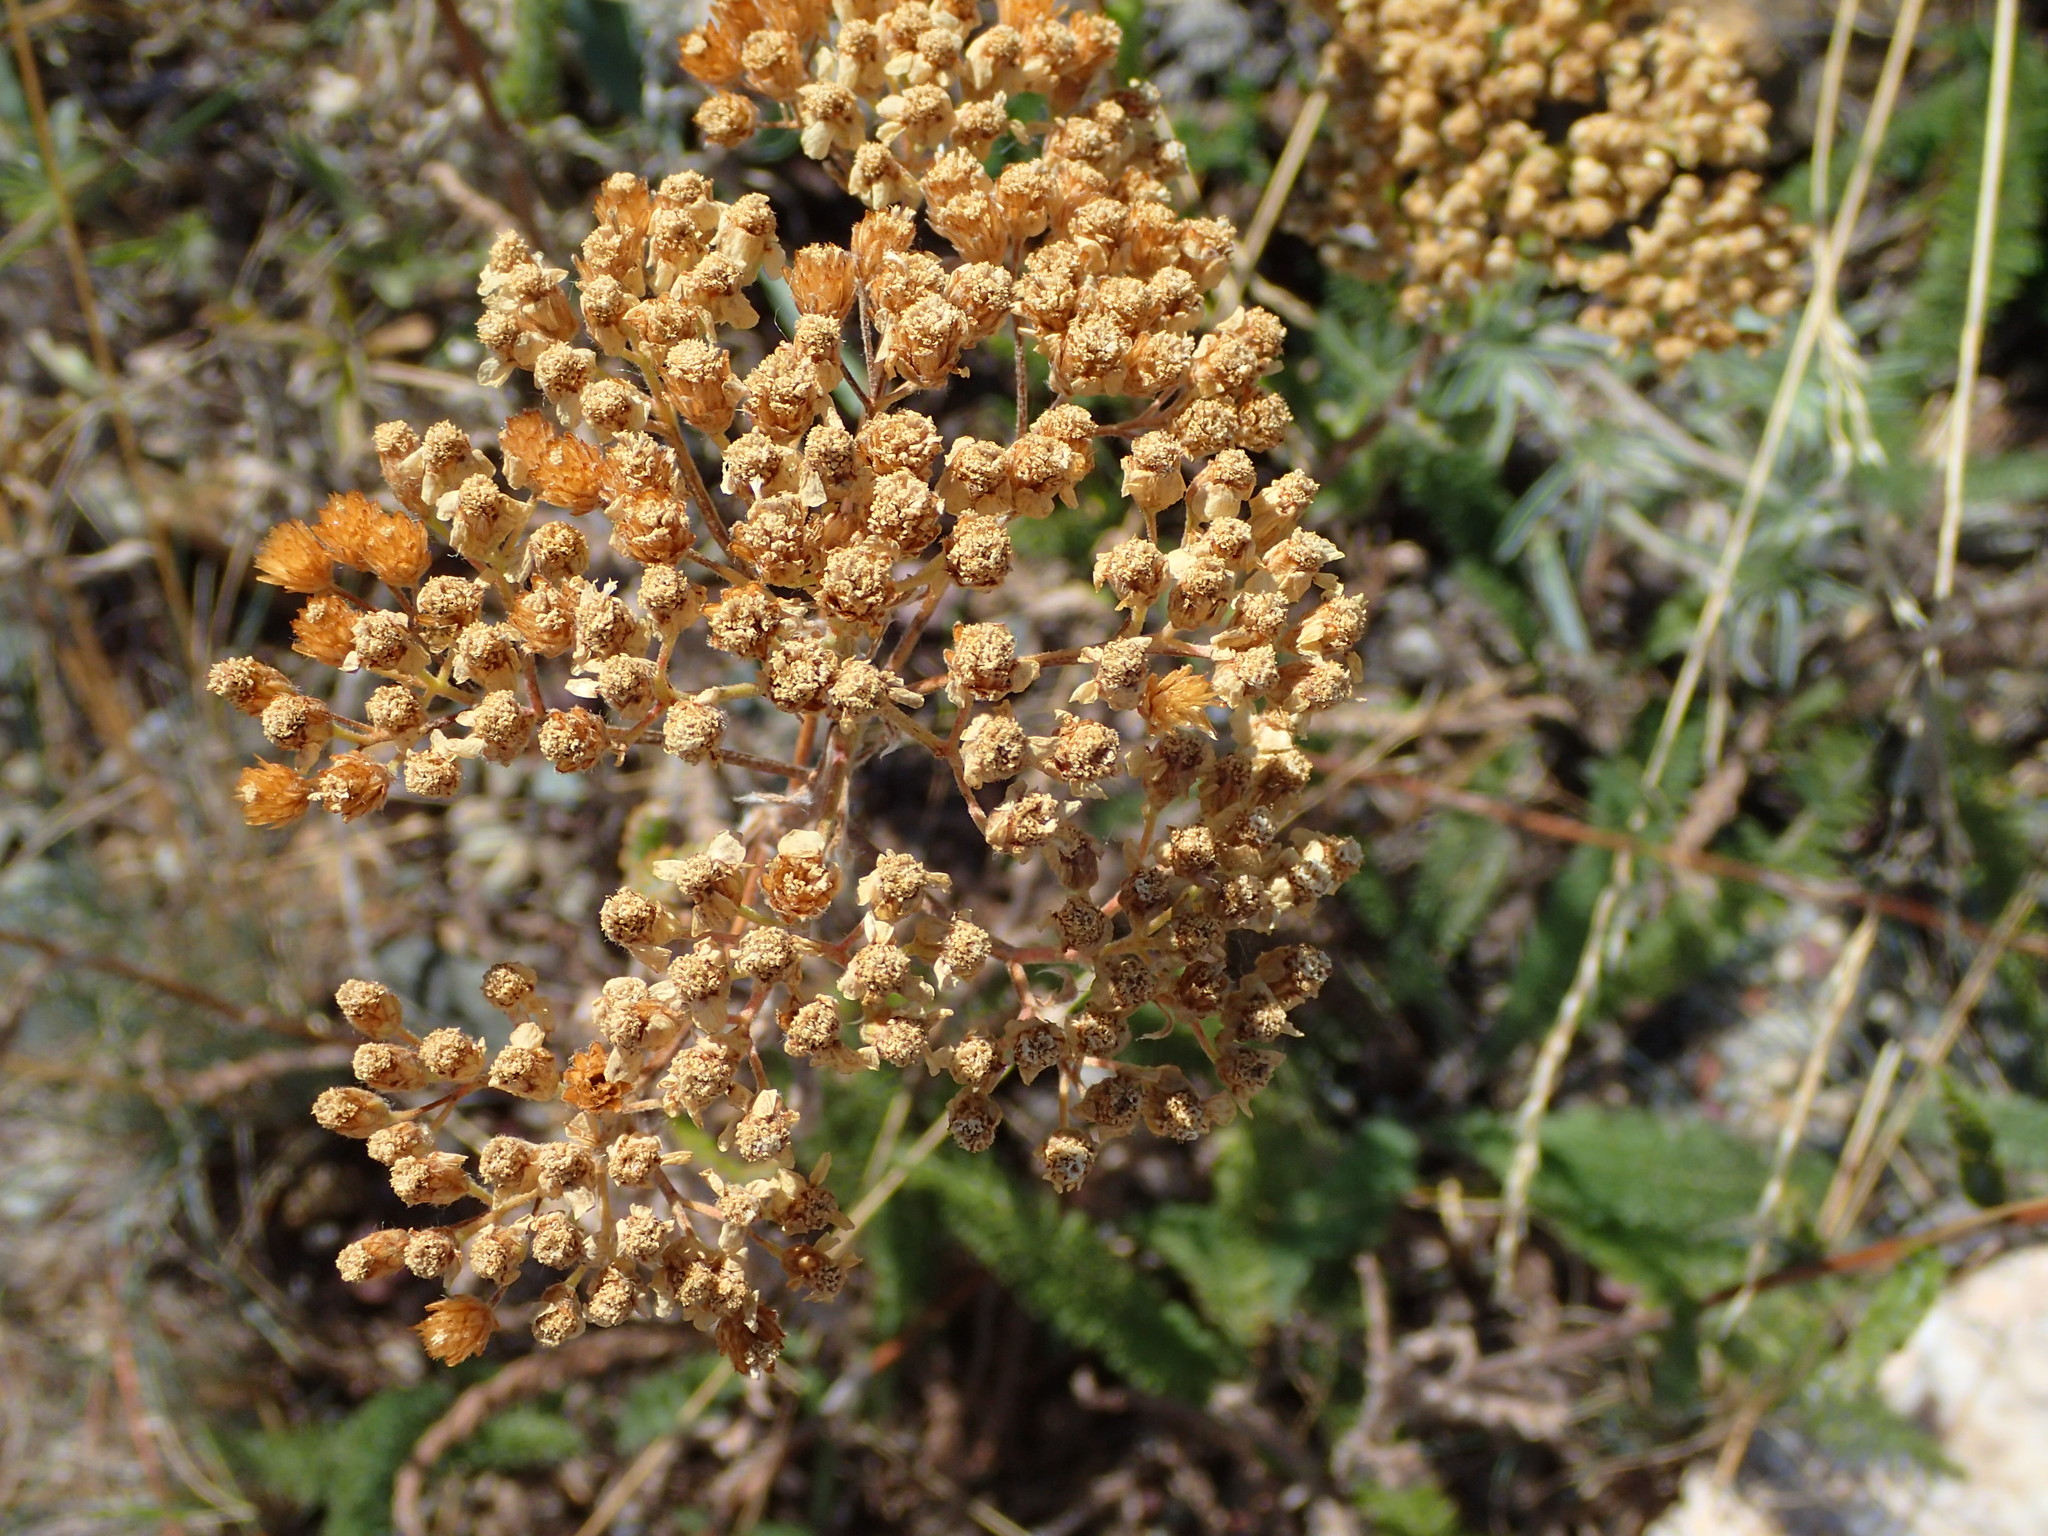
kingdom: Plantae
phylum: Tracheophyta
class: Magnoliopsida
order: Asterales
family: Asteraceae
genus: Achillea
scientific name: Achillea millefolium
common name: Yarrow
